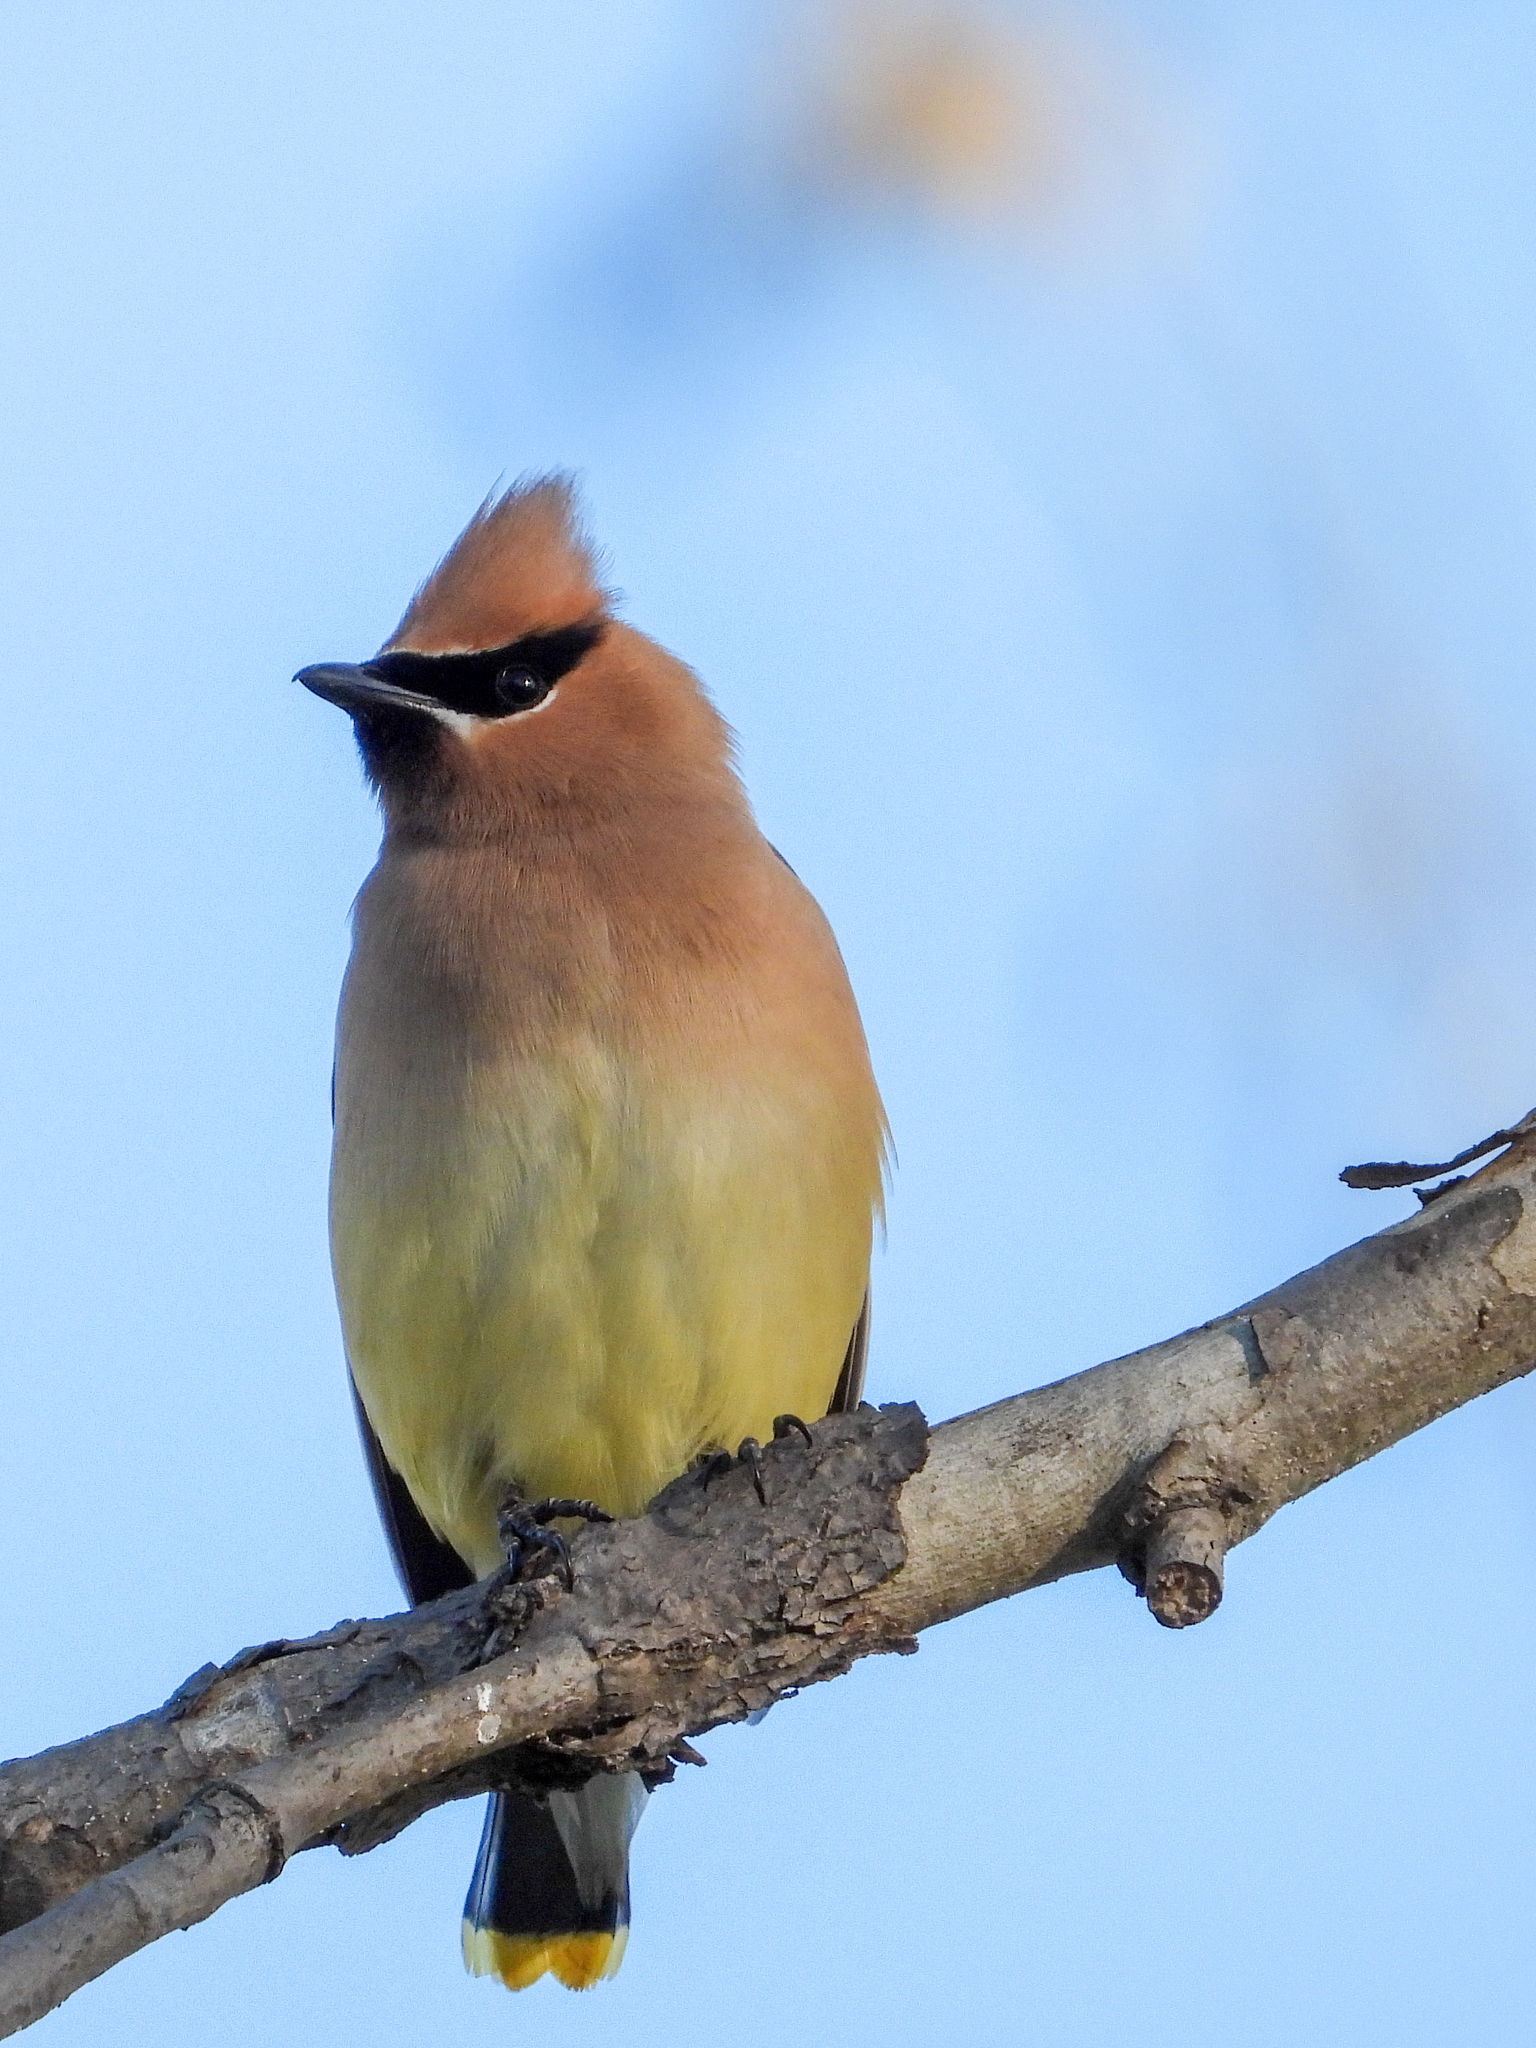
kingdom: Animalia
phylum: Chordata
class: Aves
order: Passeriformes
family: Bombycillidae
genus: Bombycilla
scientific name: Bombycilla cedrorum
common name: Cedar waxwing
